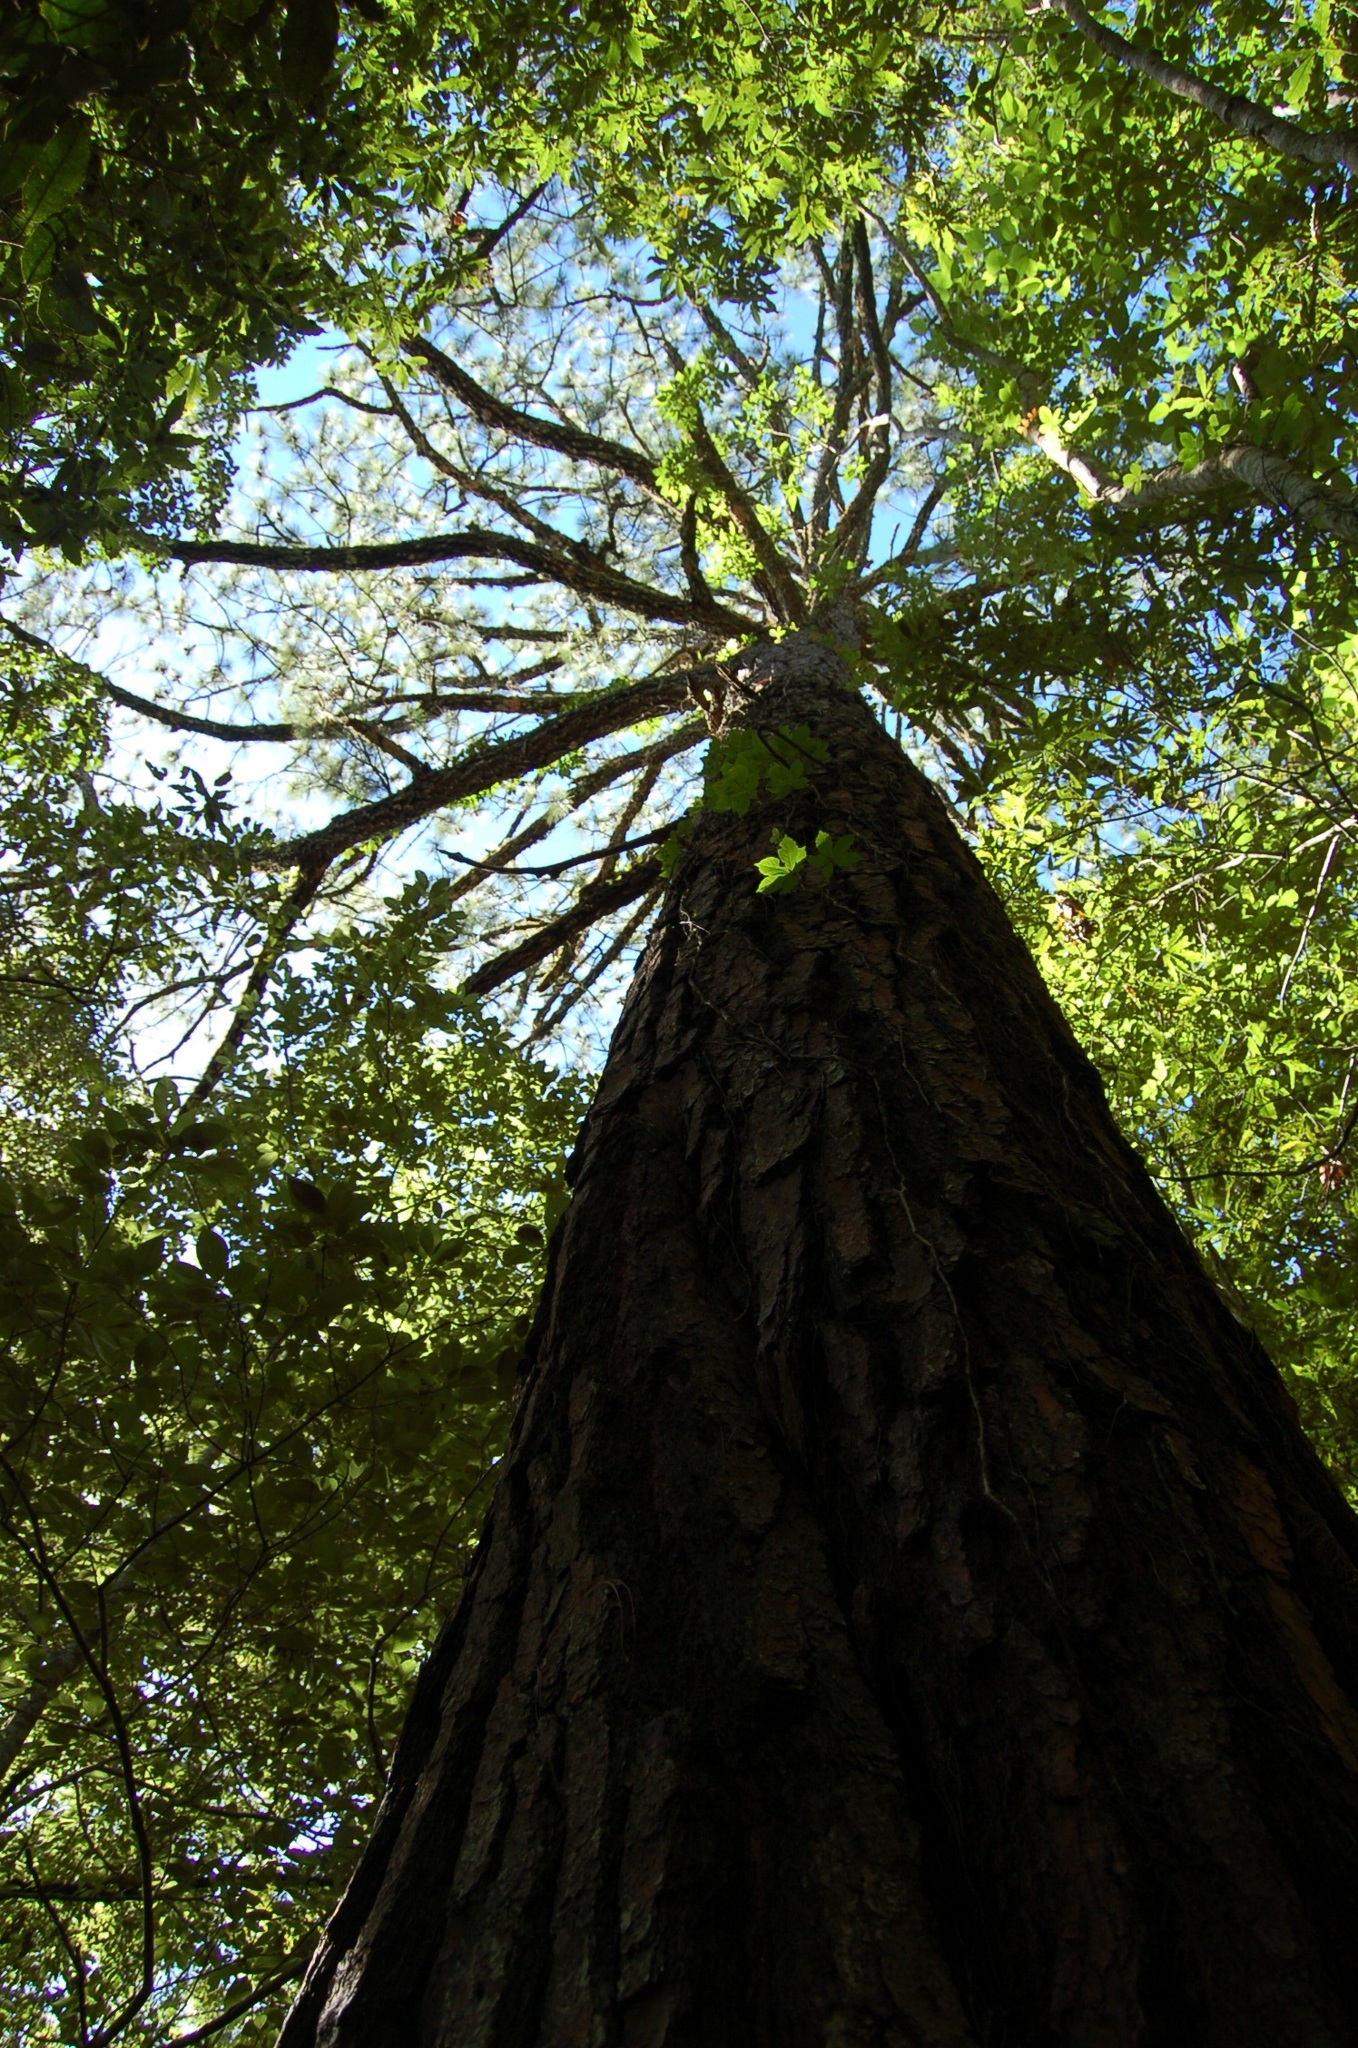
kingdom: Plantae
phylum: Tracheophyta
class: Pinopsida
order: Pinales
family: Pinaceae
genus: Pinus
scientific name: Pinus maximinoi
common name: Thin-leaf pine
